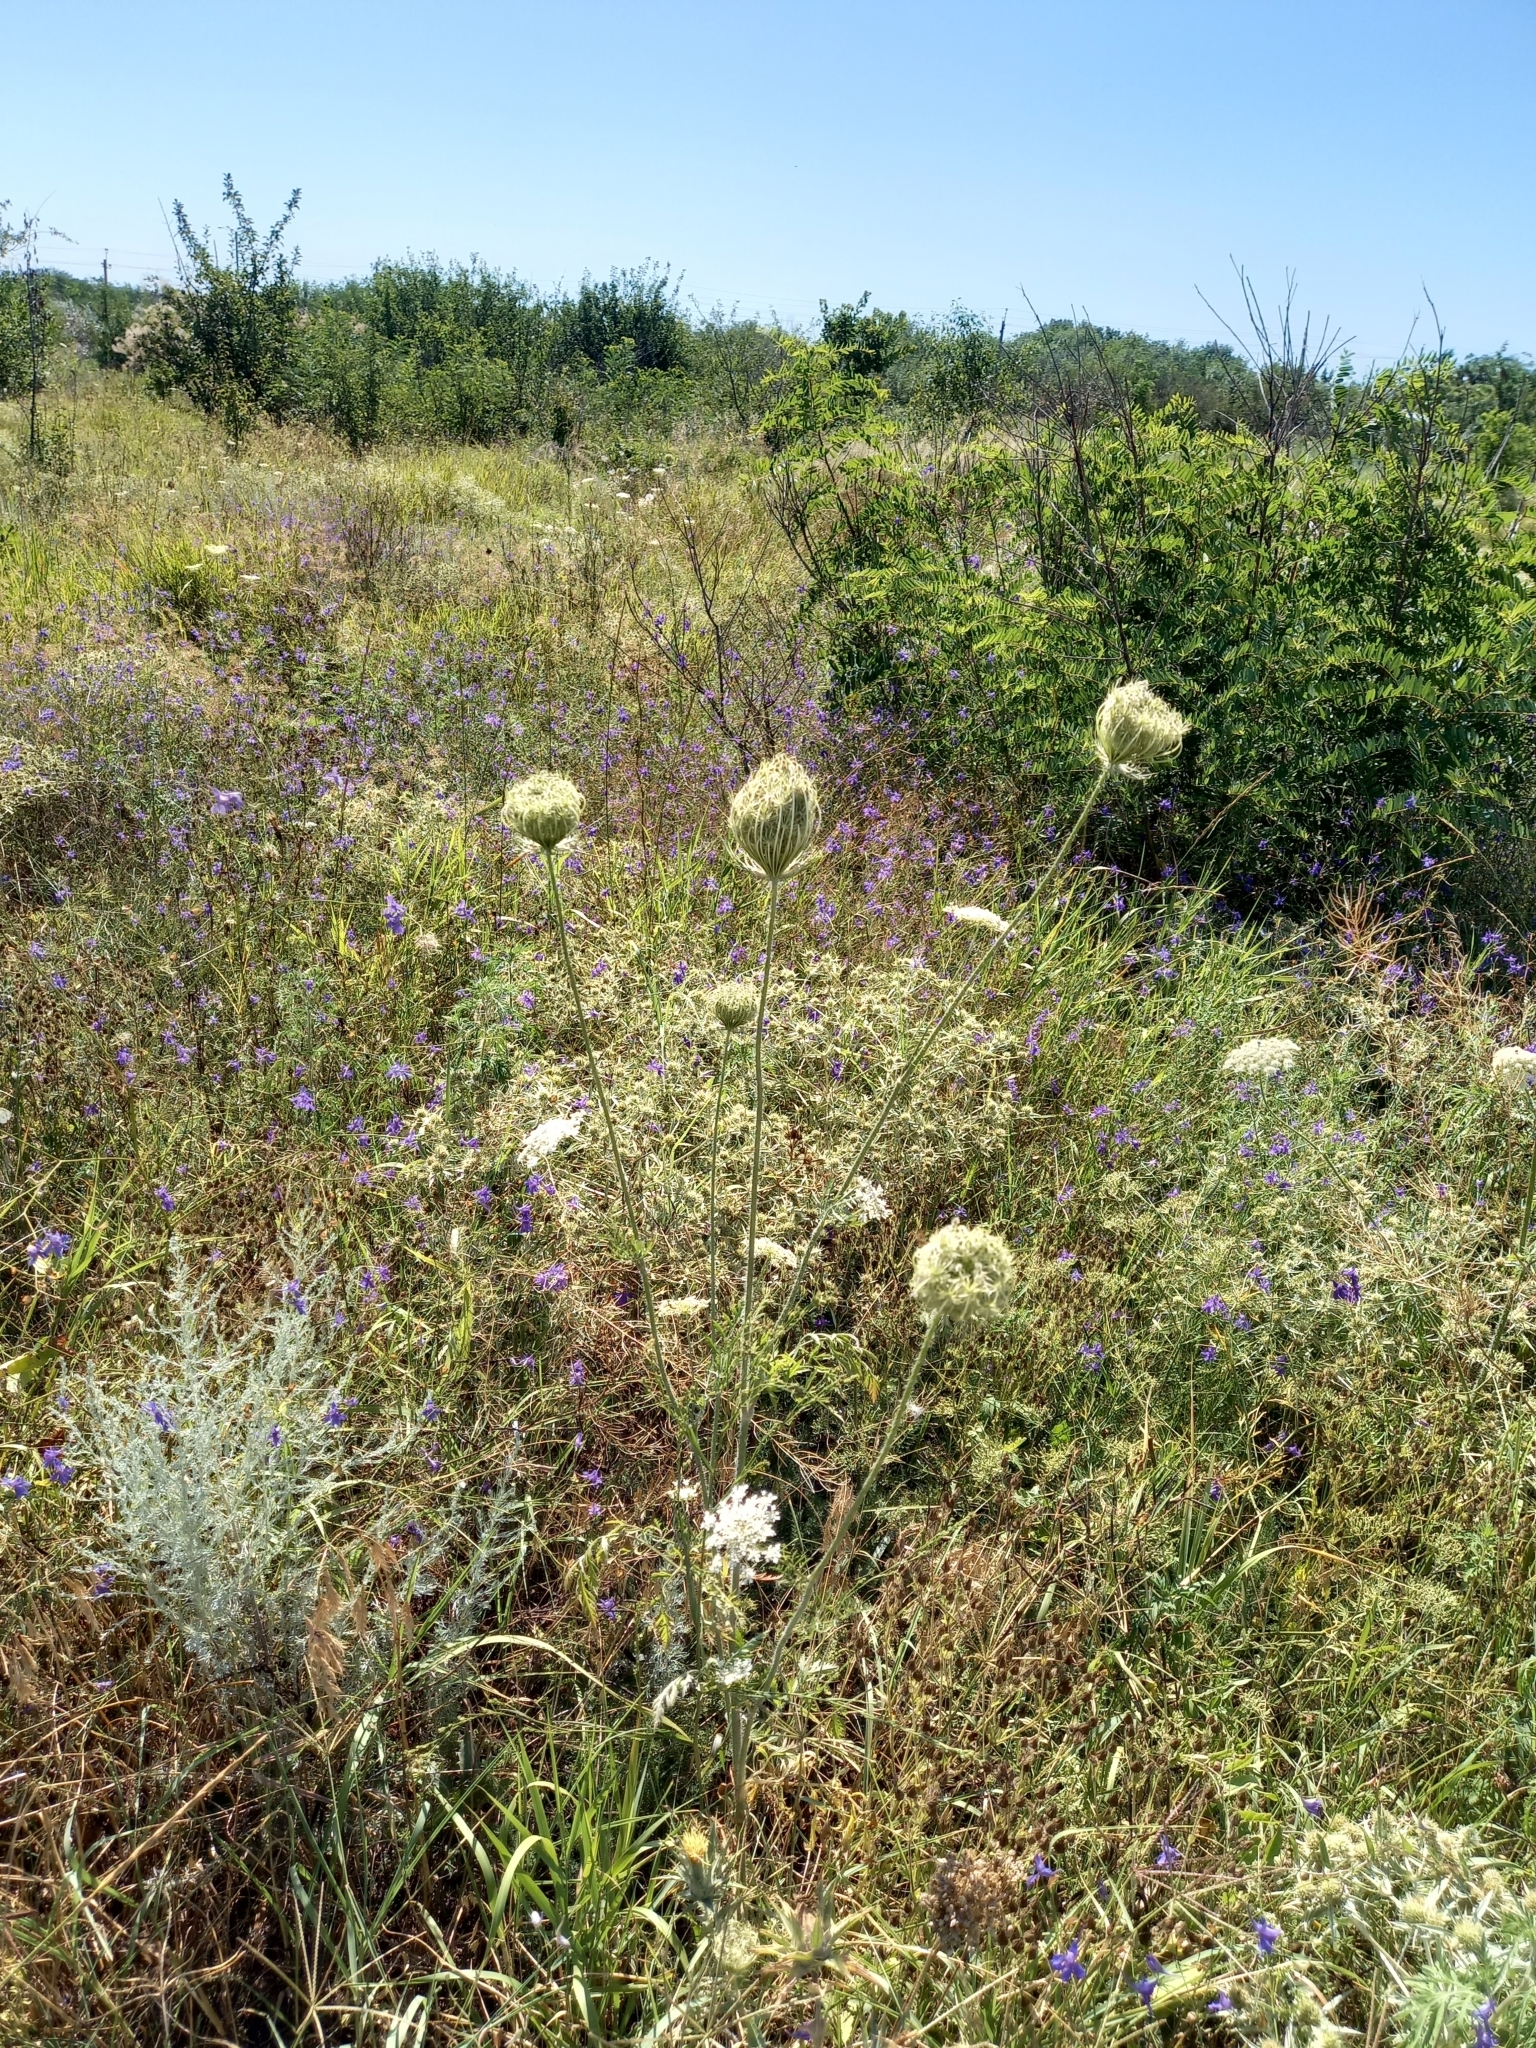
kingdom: Plantae
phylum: Tracheophyta
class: Magnoliopsida
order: Apiales
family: Apiaceae
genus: Daucus
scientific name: Daucus carota
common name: Wild carrot
